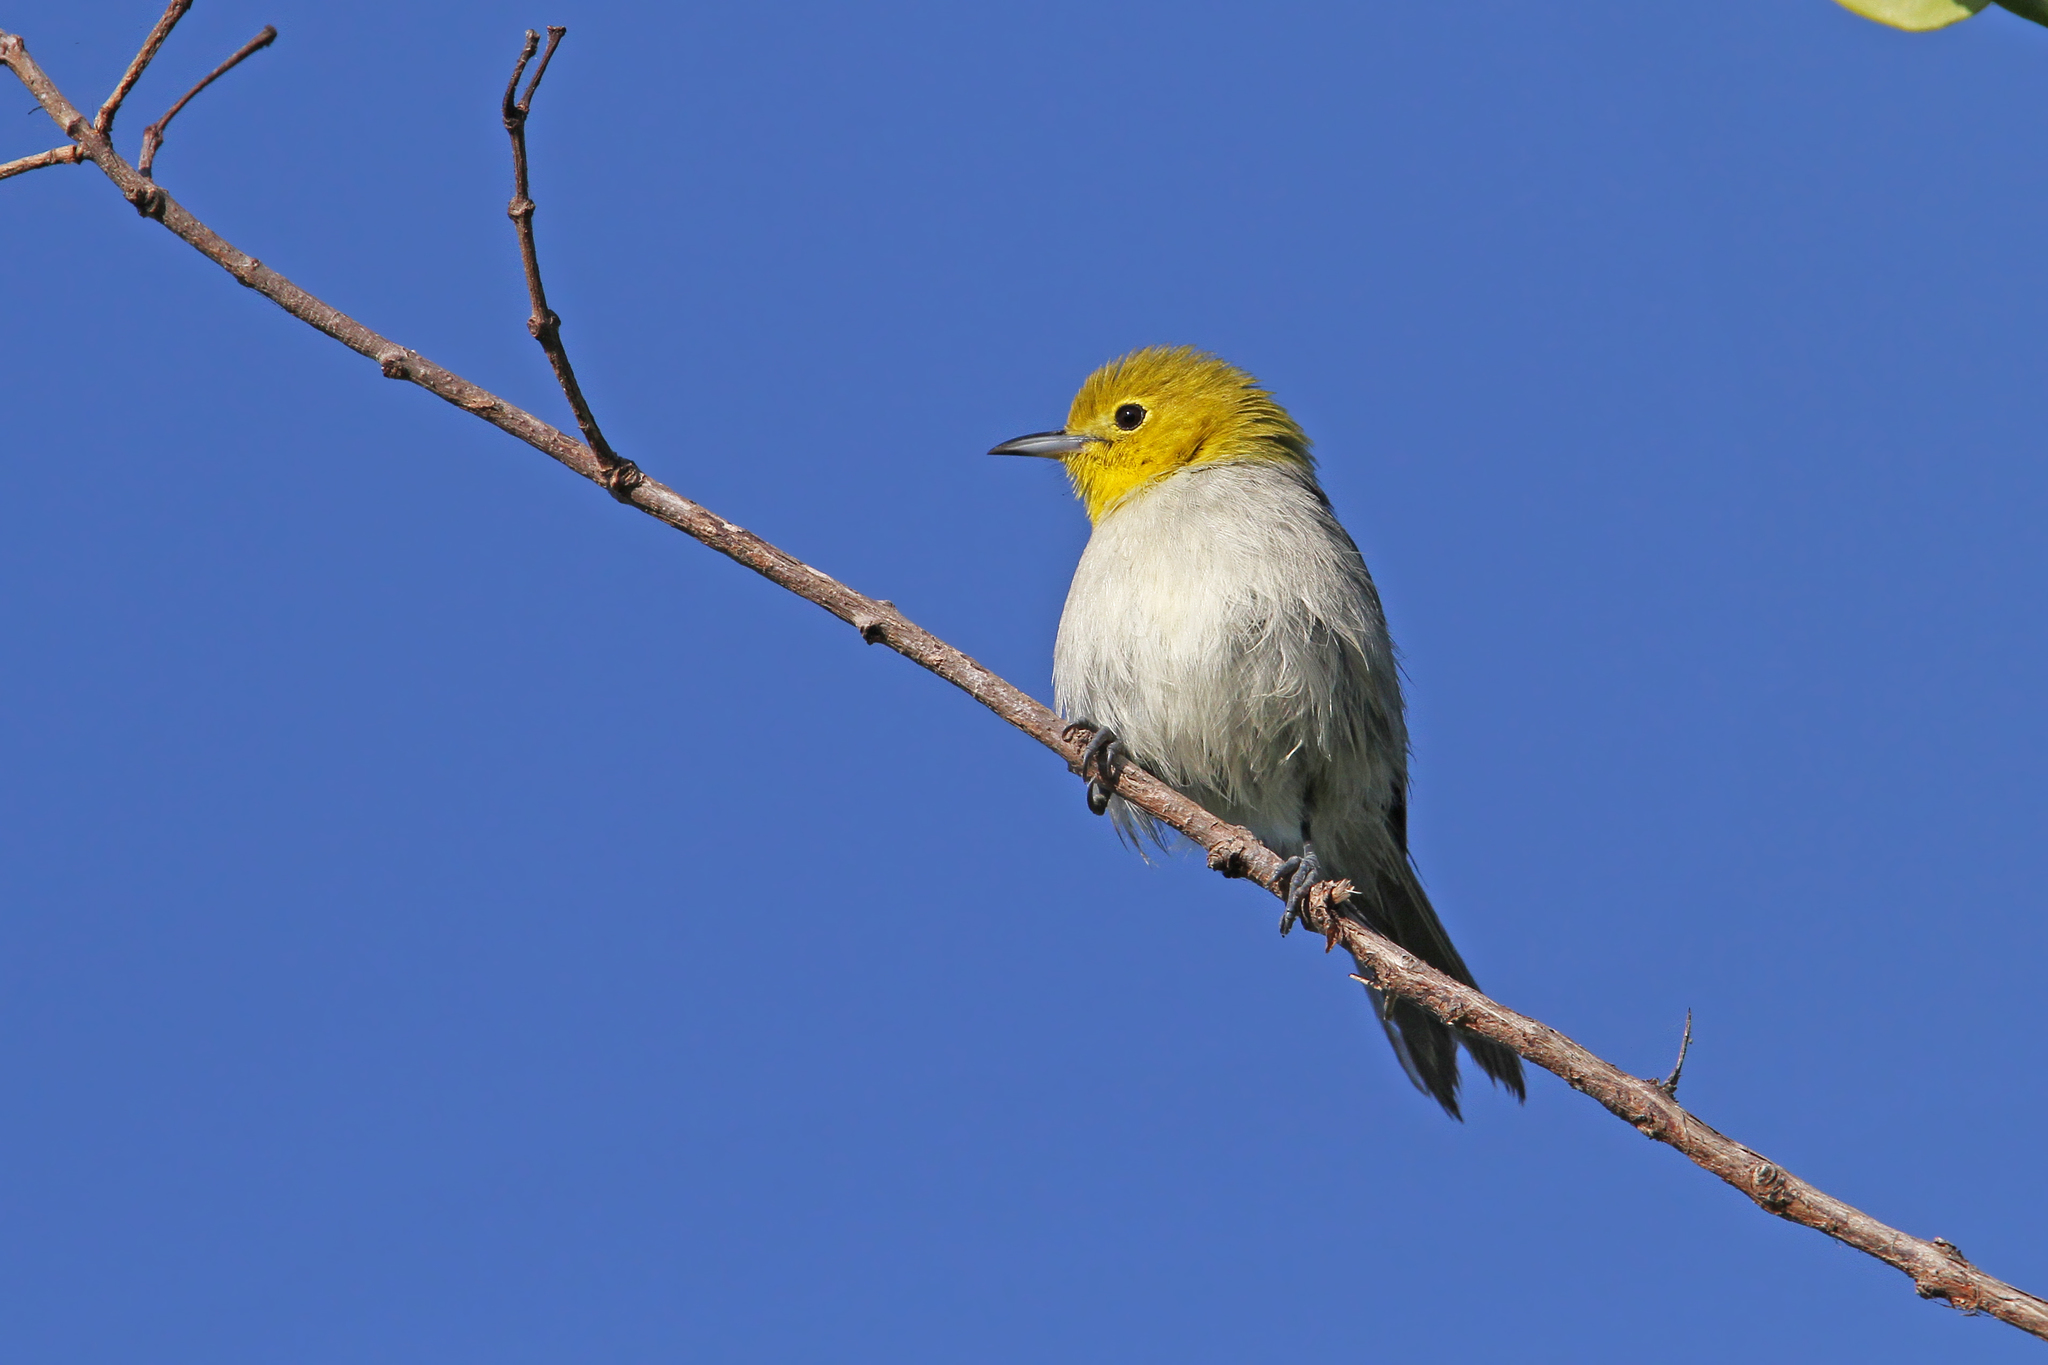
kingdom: Animalia
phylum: Chordata
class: Aves
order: Passeriformes
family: Parulidae
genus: Teretistris
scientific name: Teretistris fernandinae
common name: Yellow-headed warbler
